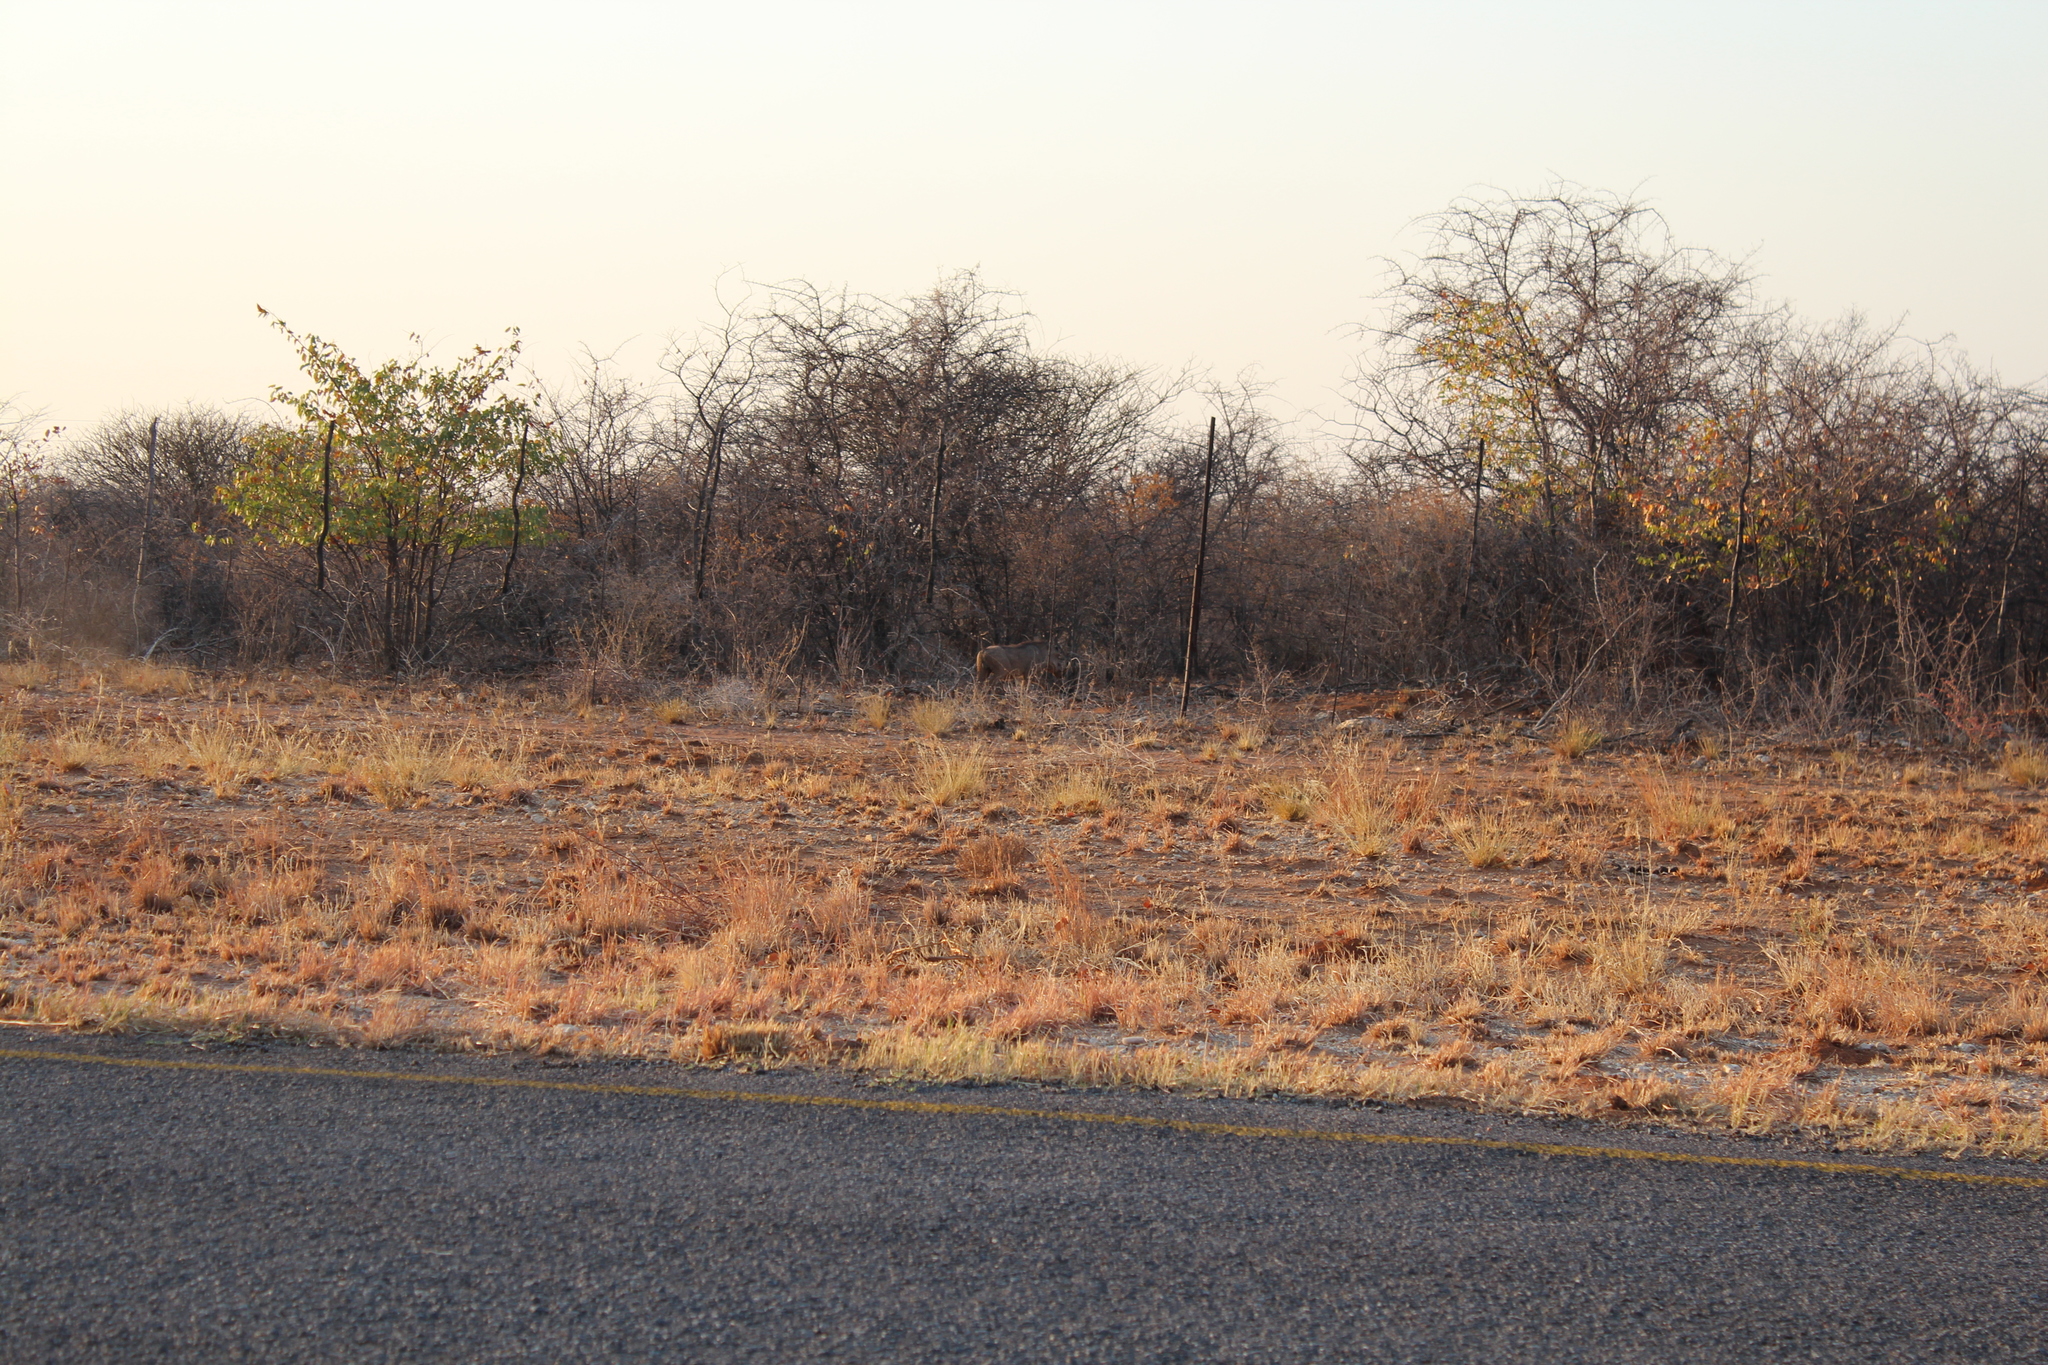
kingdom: Animalia
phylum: Chordata
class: Mammalia
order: Artiodactyla
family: Suidae
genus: Phacochoerus
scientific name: Phacochoerus africanus
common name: Common warthog
